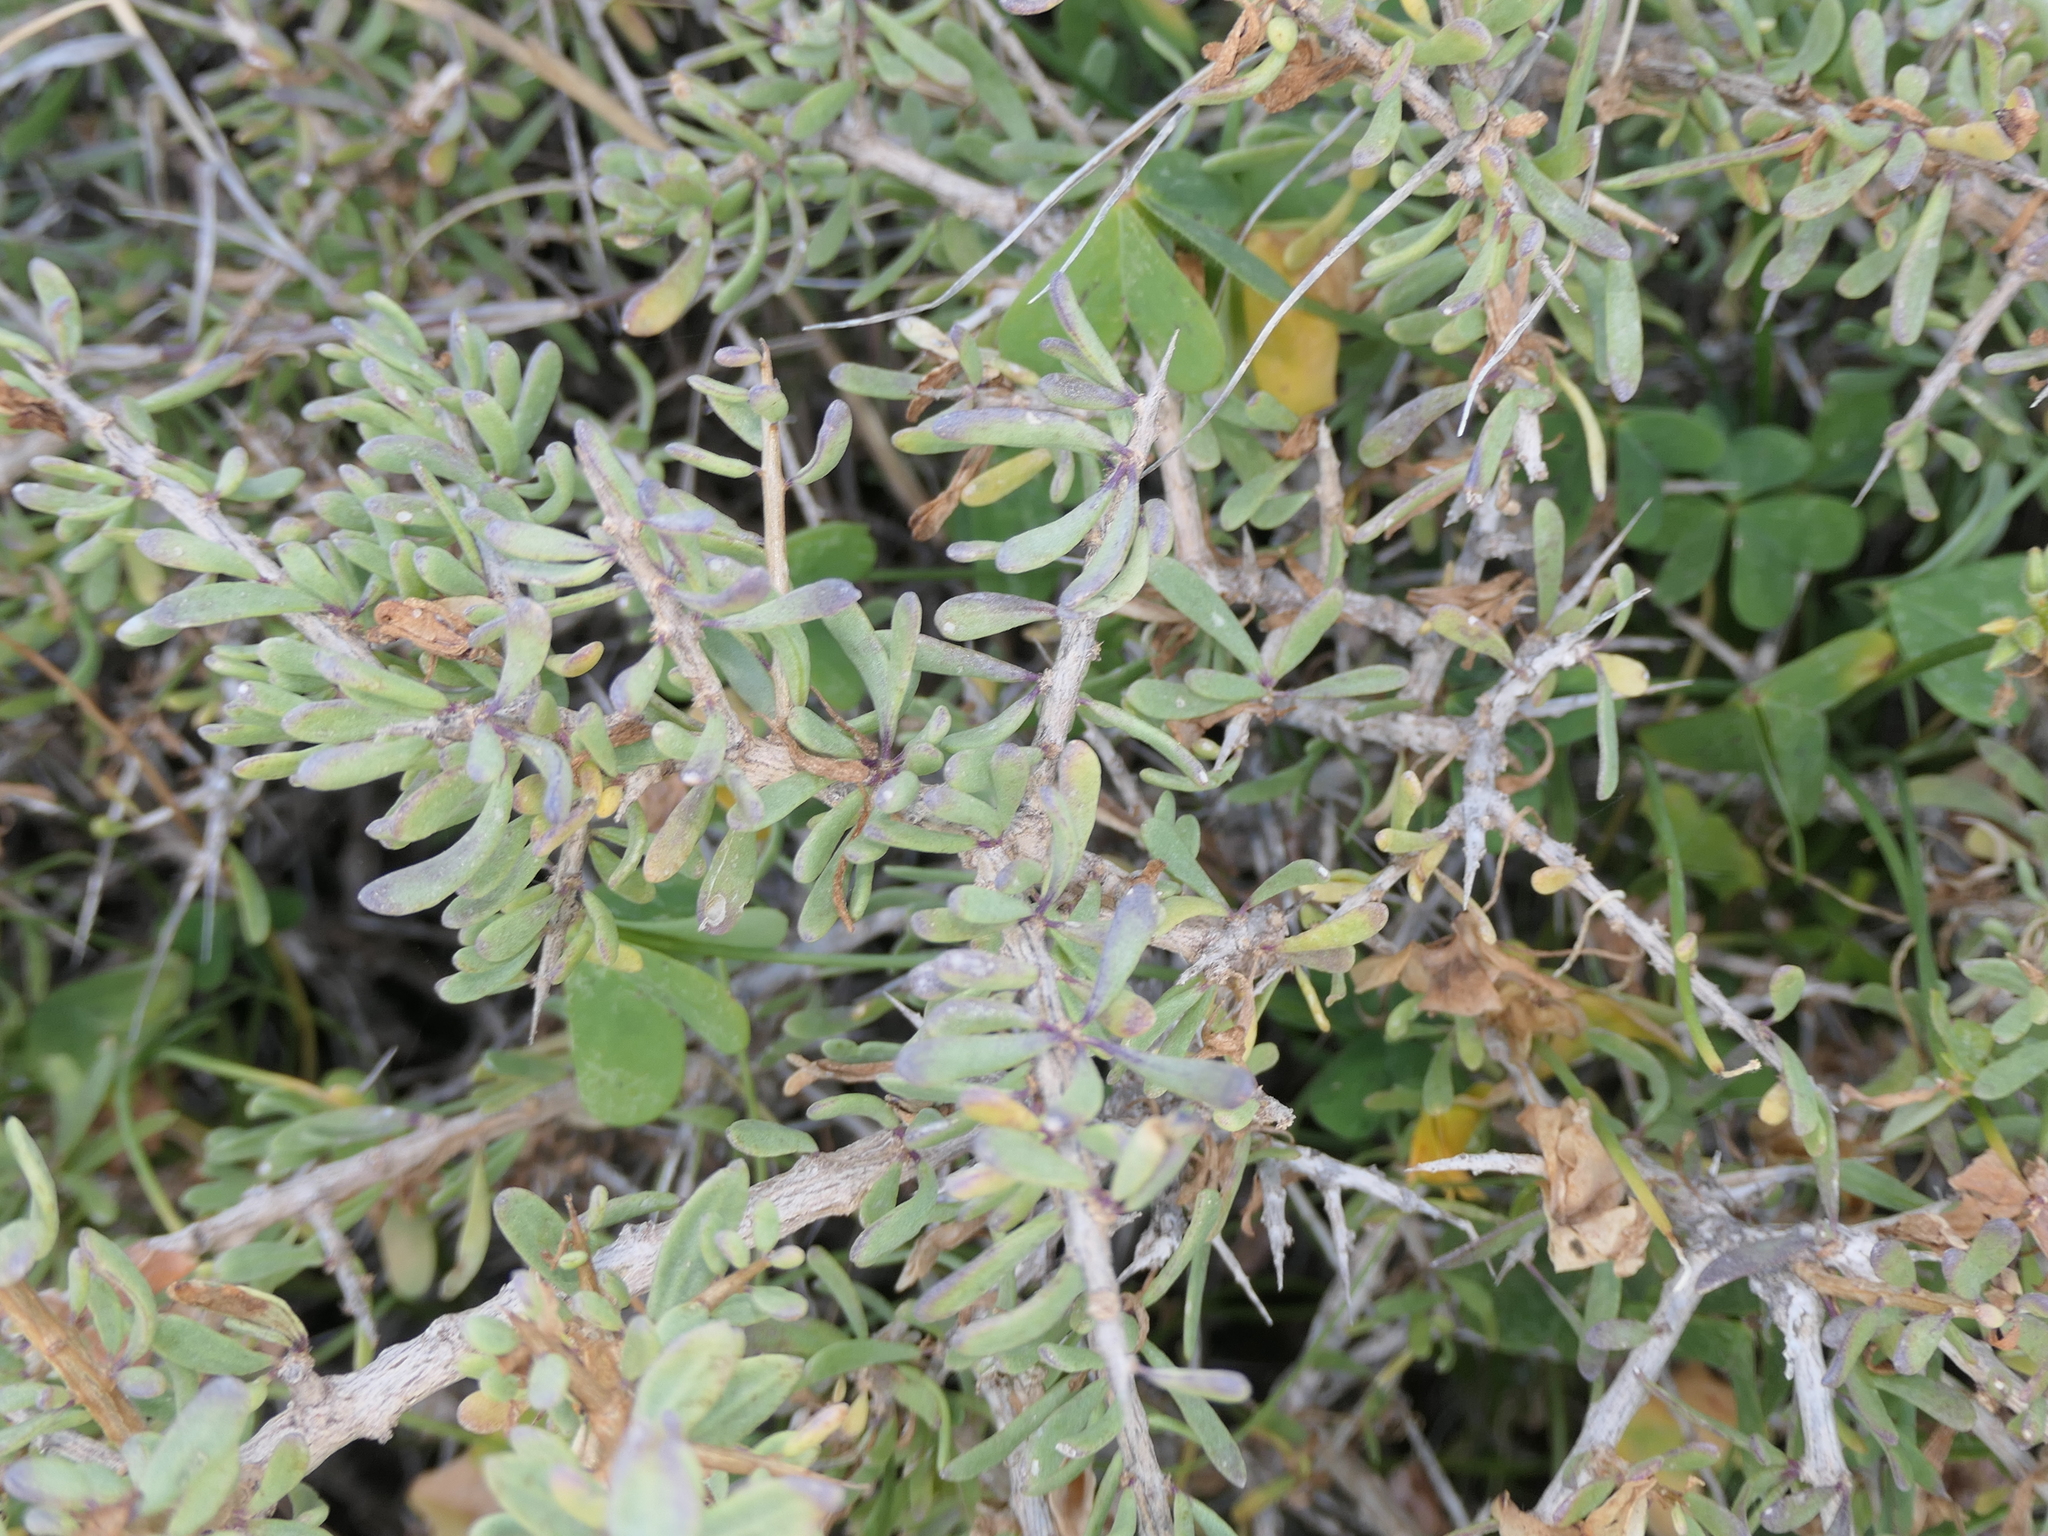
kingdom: Plantae
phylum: Tracheophyta
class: Magnoliopsida
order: Solanales
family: Solanaceae
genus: Lycium
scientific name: Lycium intricatum
